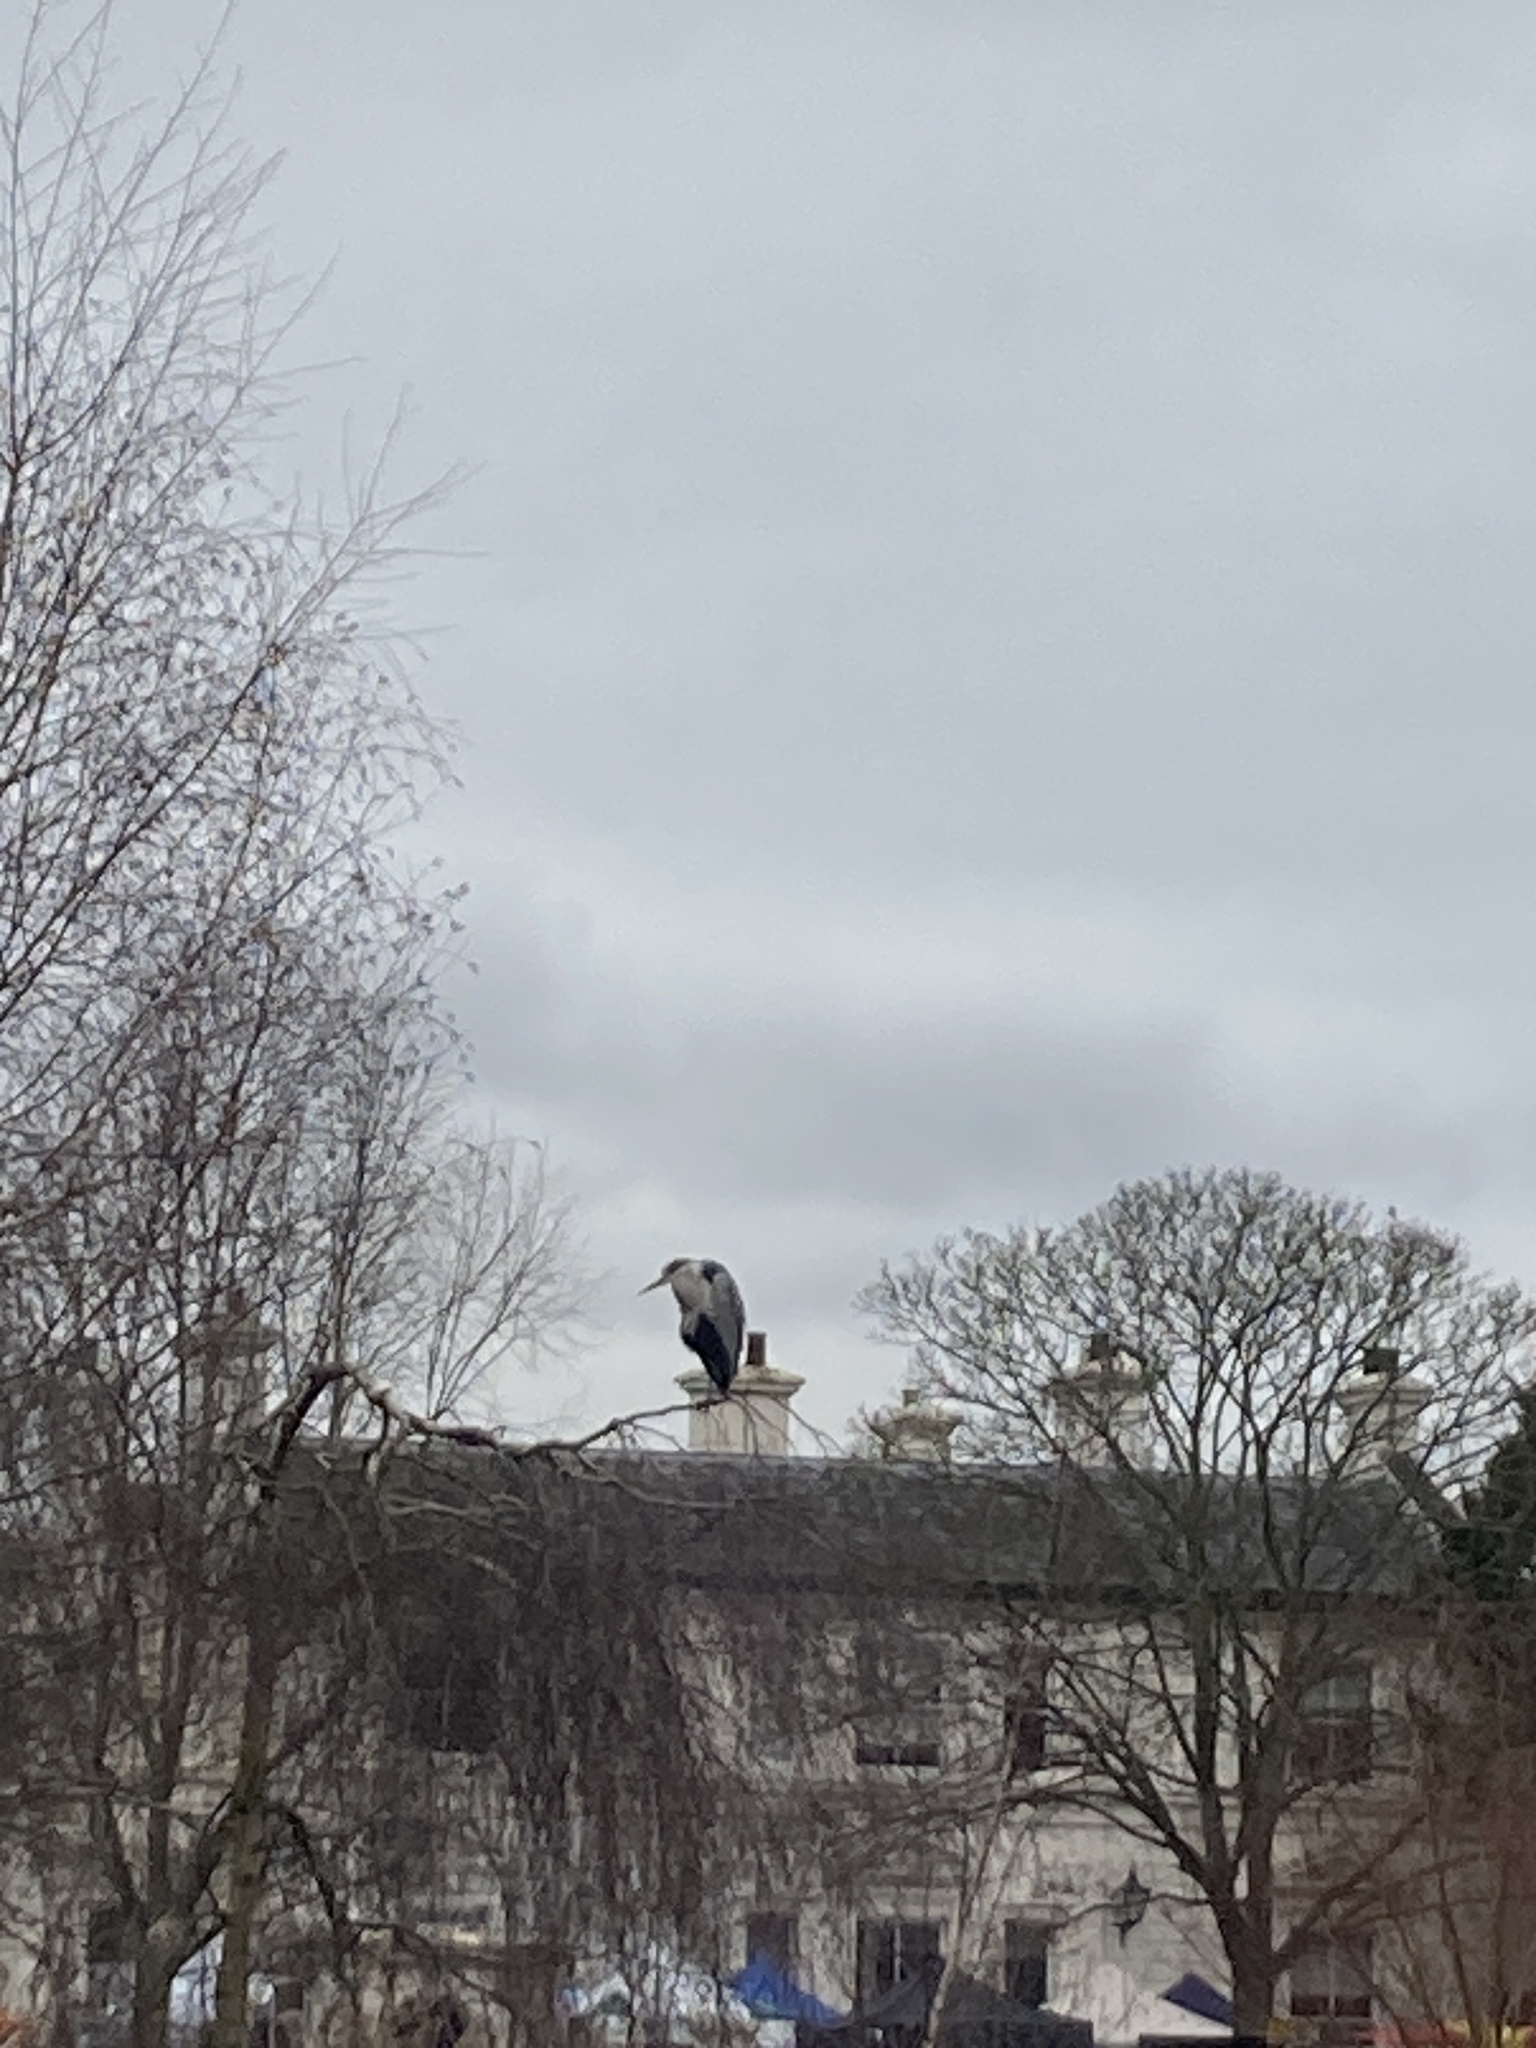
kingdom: Animalia
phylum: Chordata
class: Aves
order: Pelecaniformes
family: Ardeidae
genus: Ardea
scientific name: Ardea cinerea
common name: Grey heron
